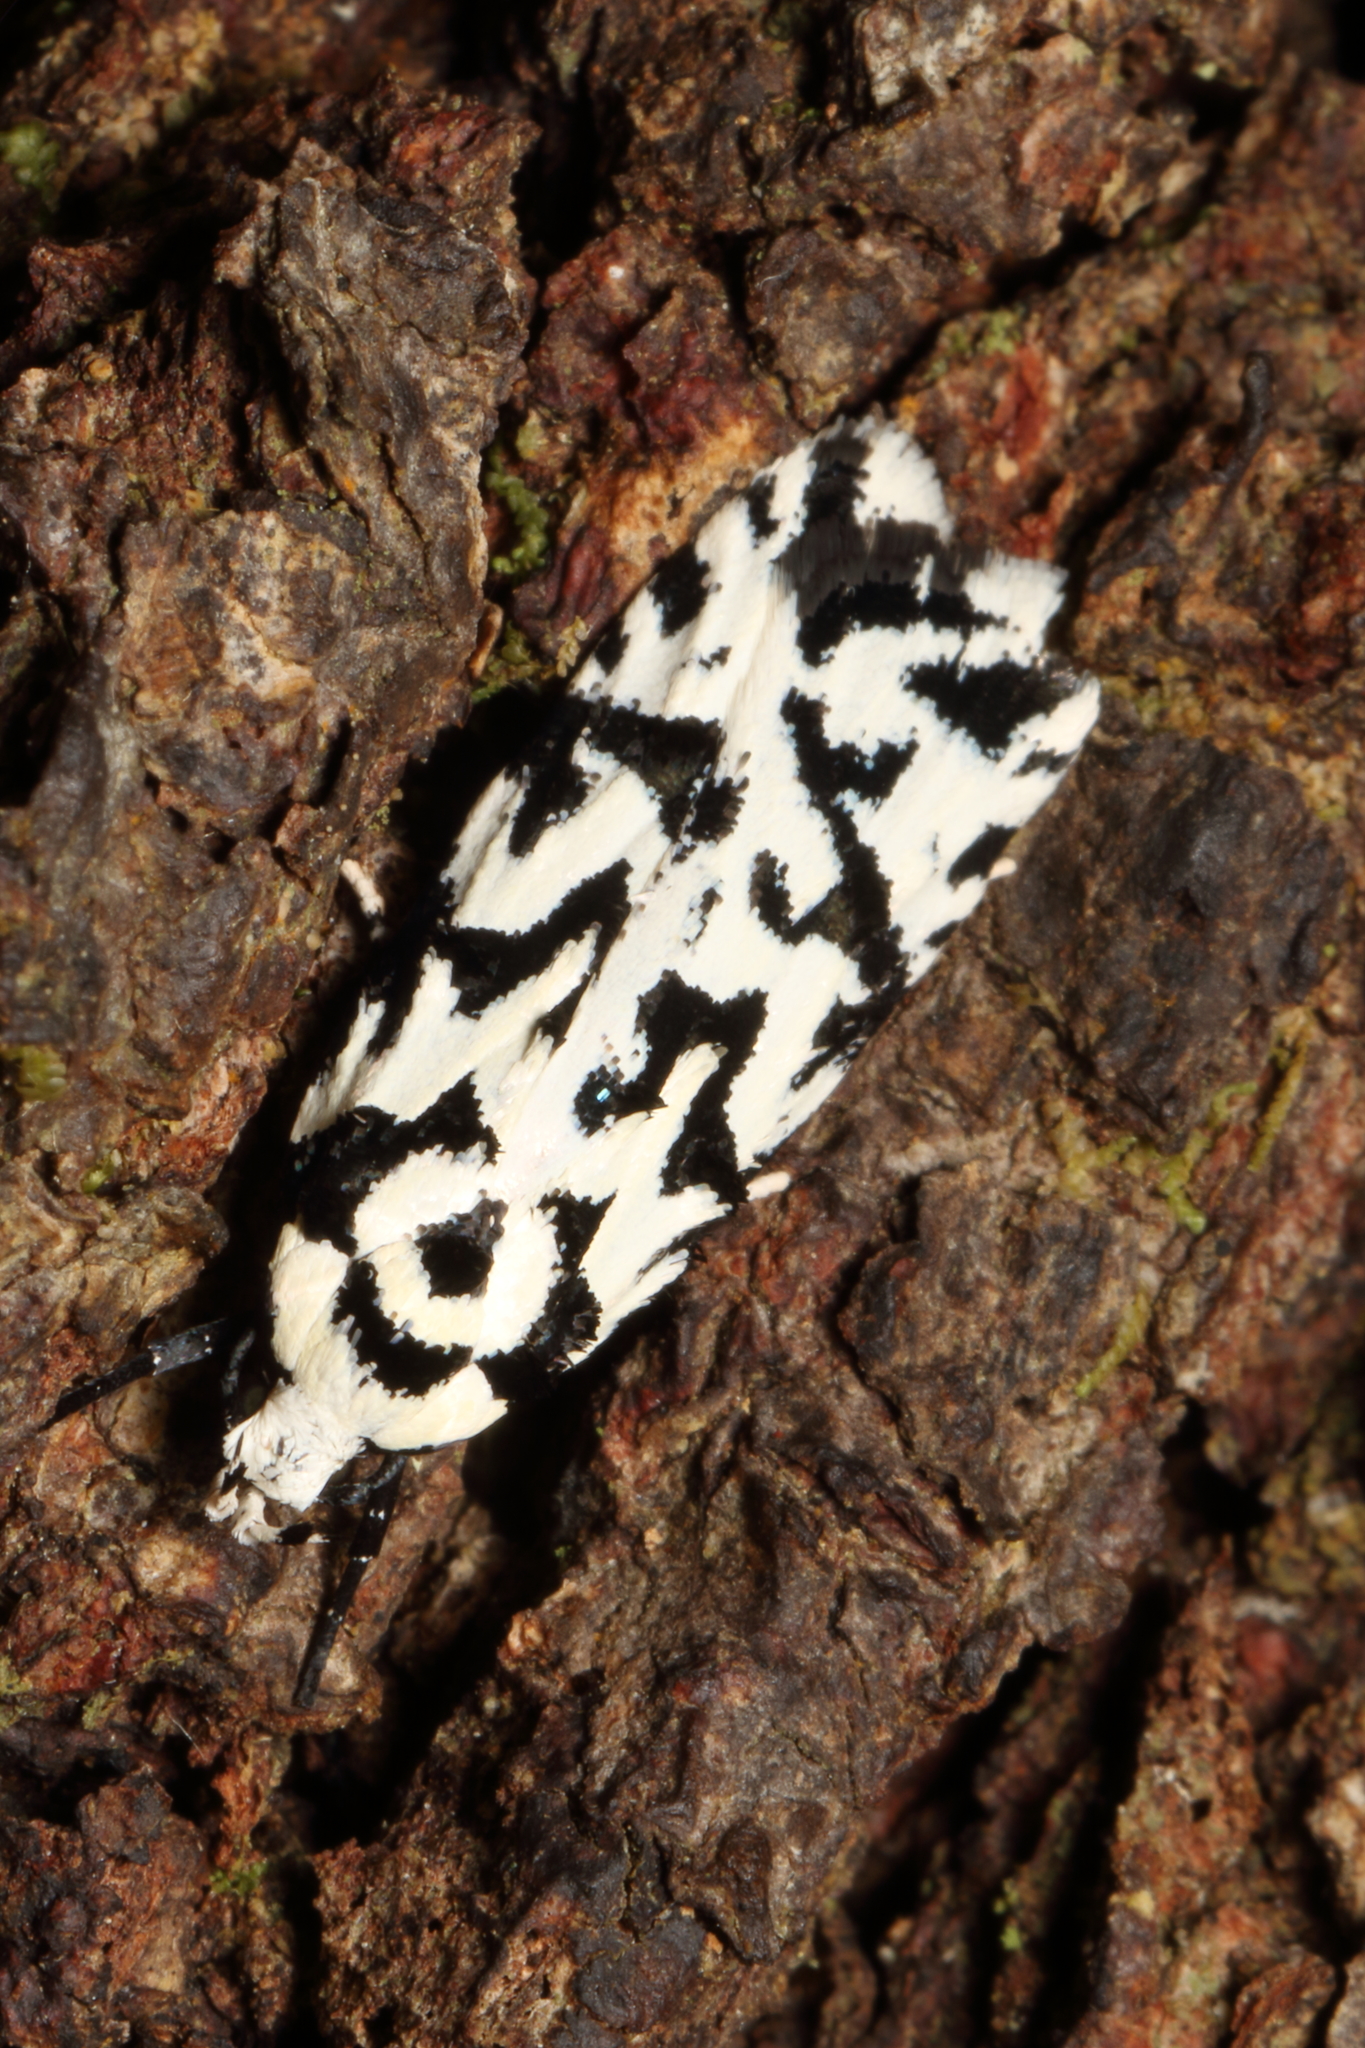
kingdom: Animalia
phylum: Arthropoda
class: Insecta
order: Lepidoptera
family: Oecophoridae
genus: Izatha
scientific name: Izatha
